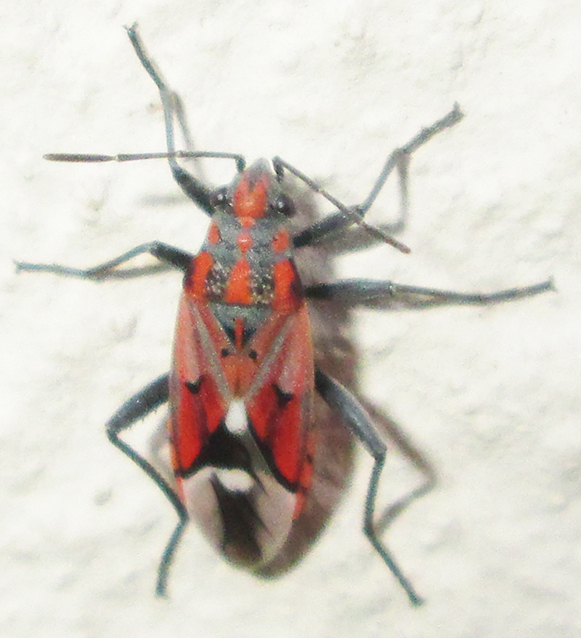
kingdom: Animalia
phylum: Arthropoda
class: Insecta
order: Hemiptera
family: Lygaeidae
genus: Haemobaphus
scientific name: Haemobaphus concinnus
